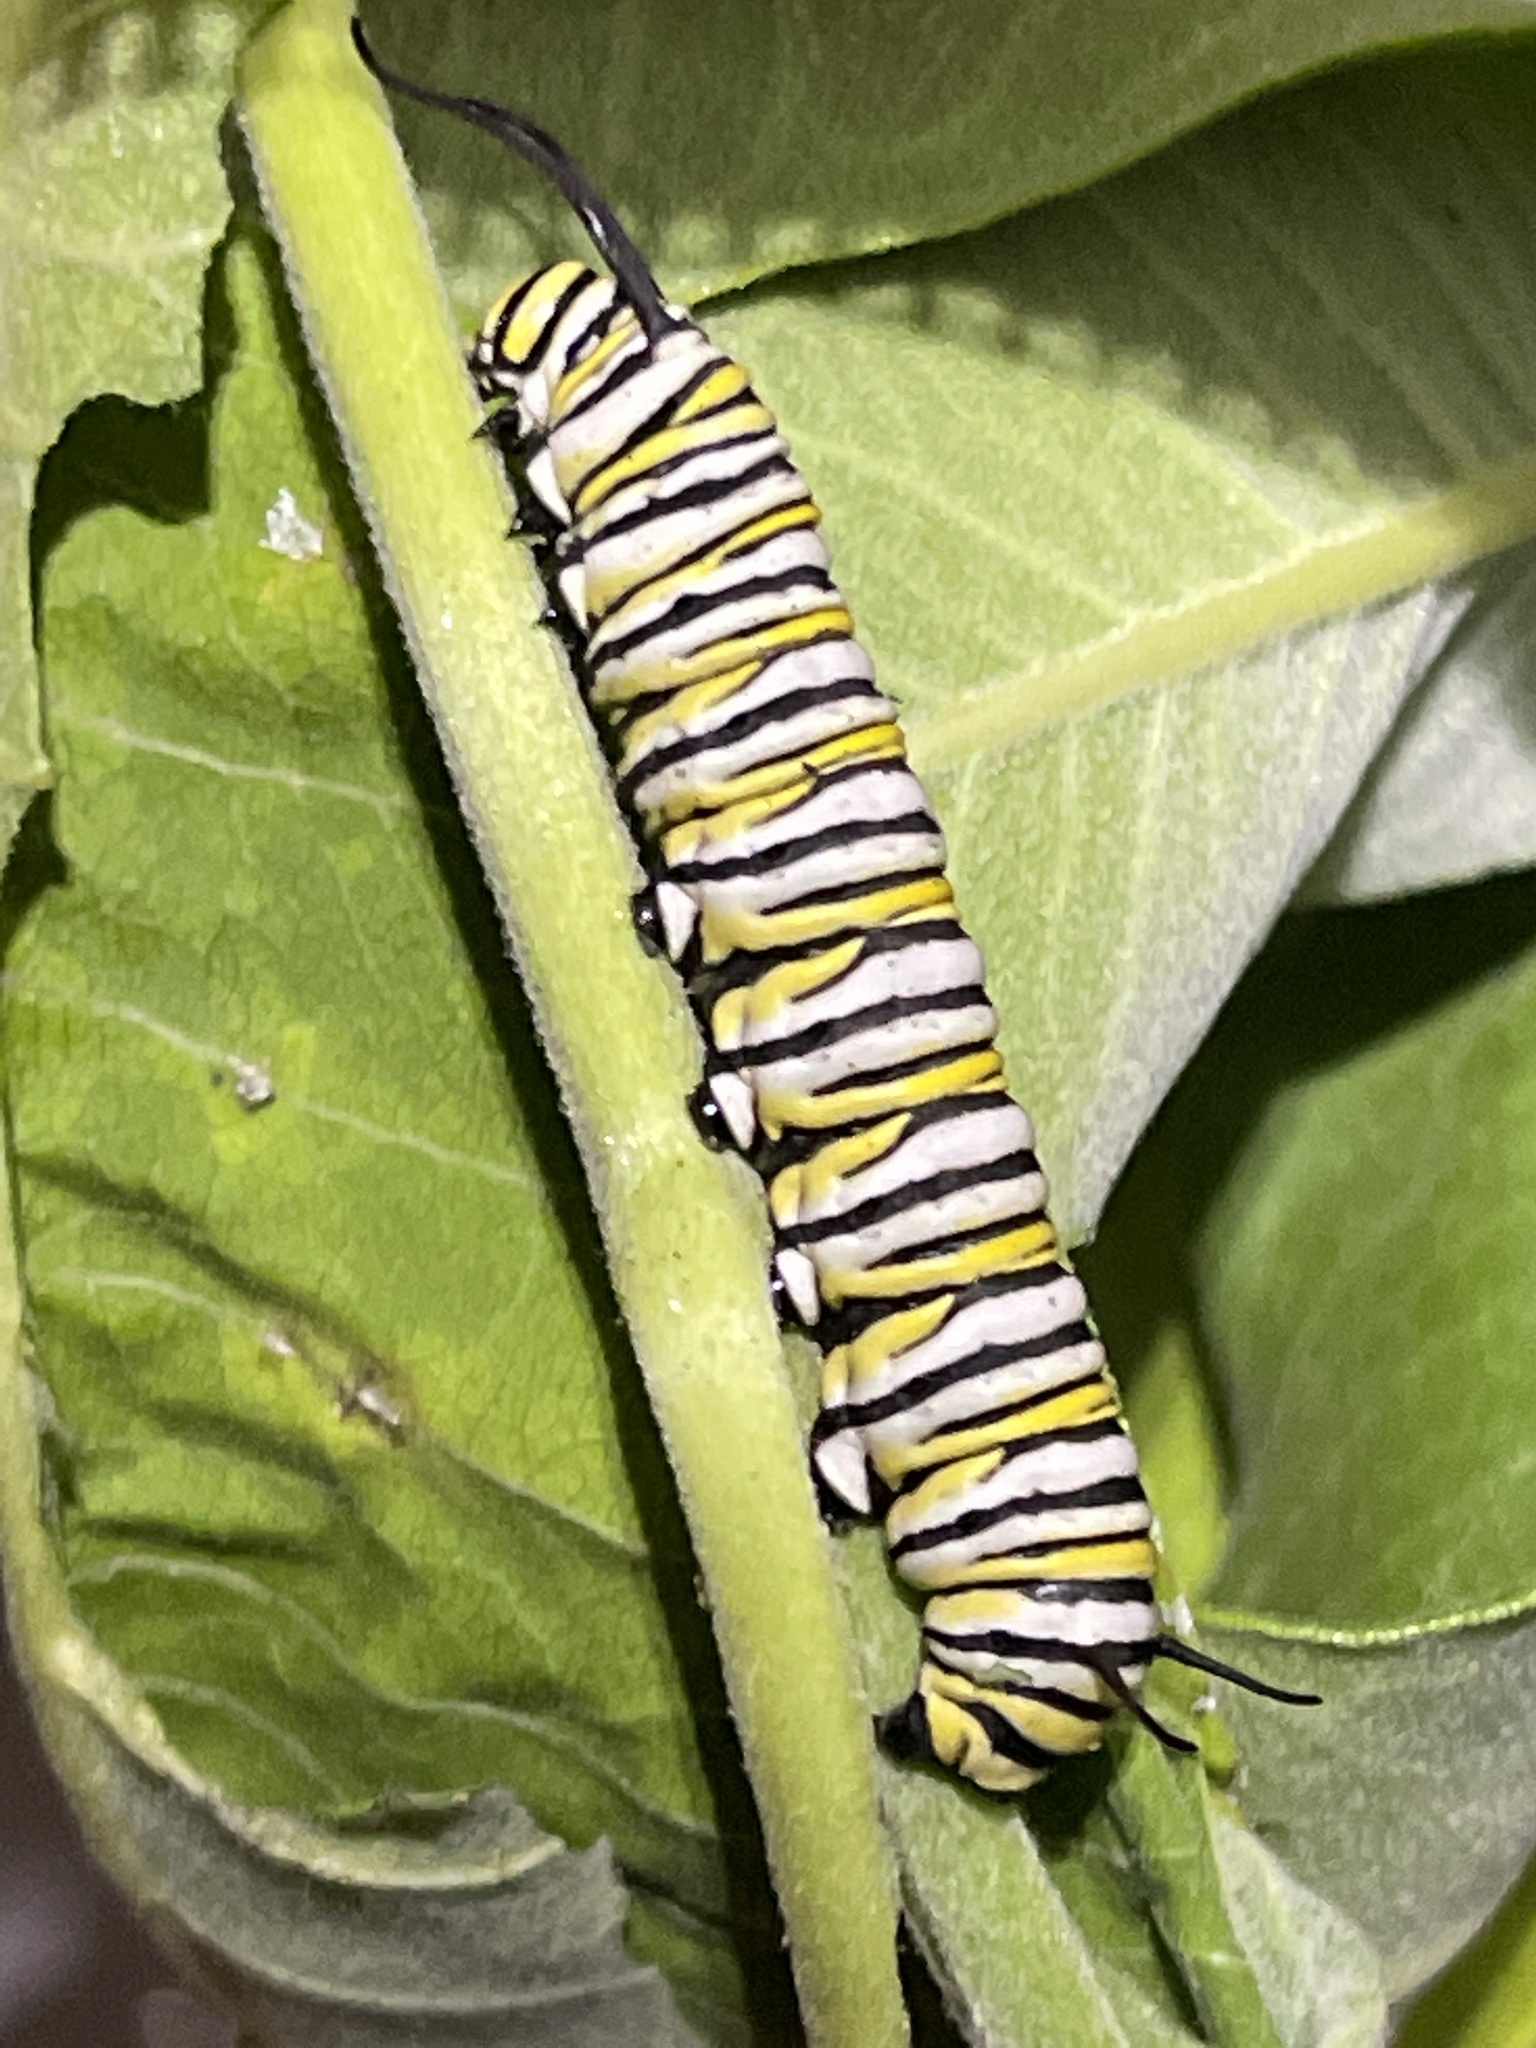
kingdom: Animalia
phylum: Arthropoda
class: Insecta
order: Lepidoptera
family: Nymphalidae
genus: Danaus
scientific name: Danaus plexippus
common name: Monarch
